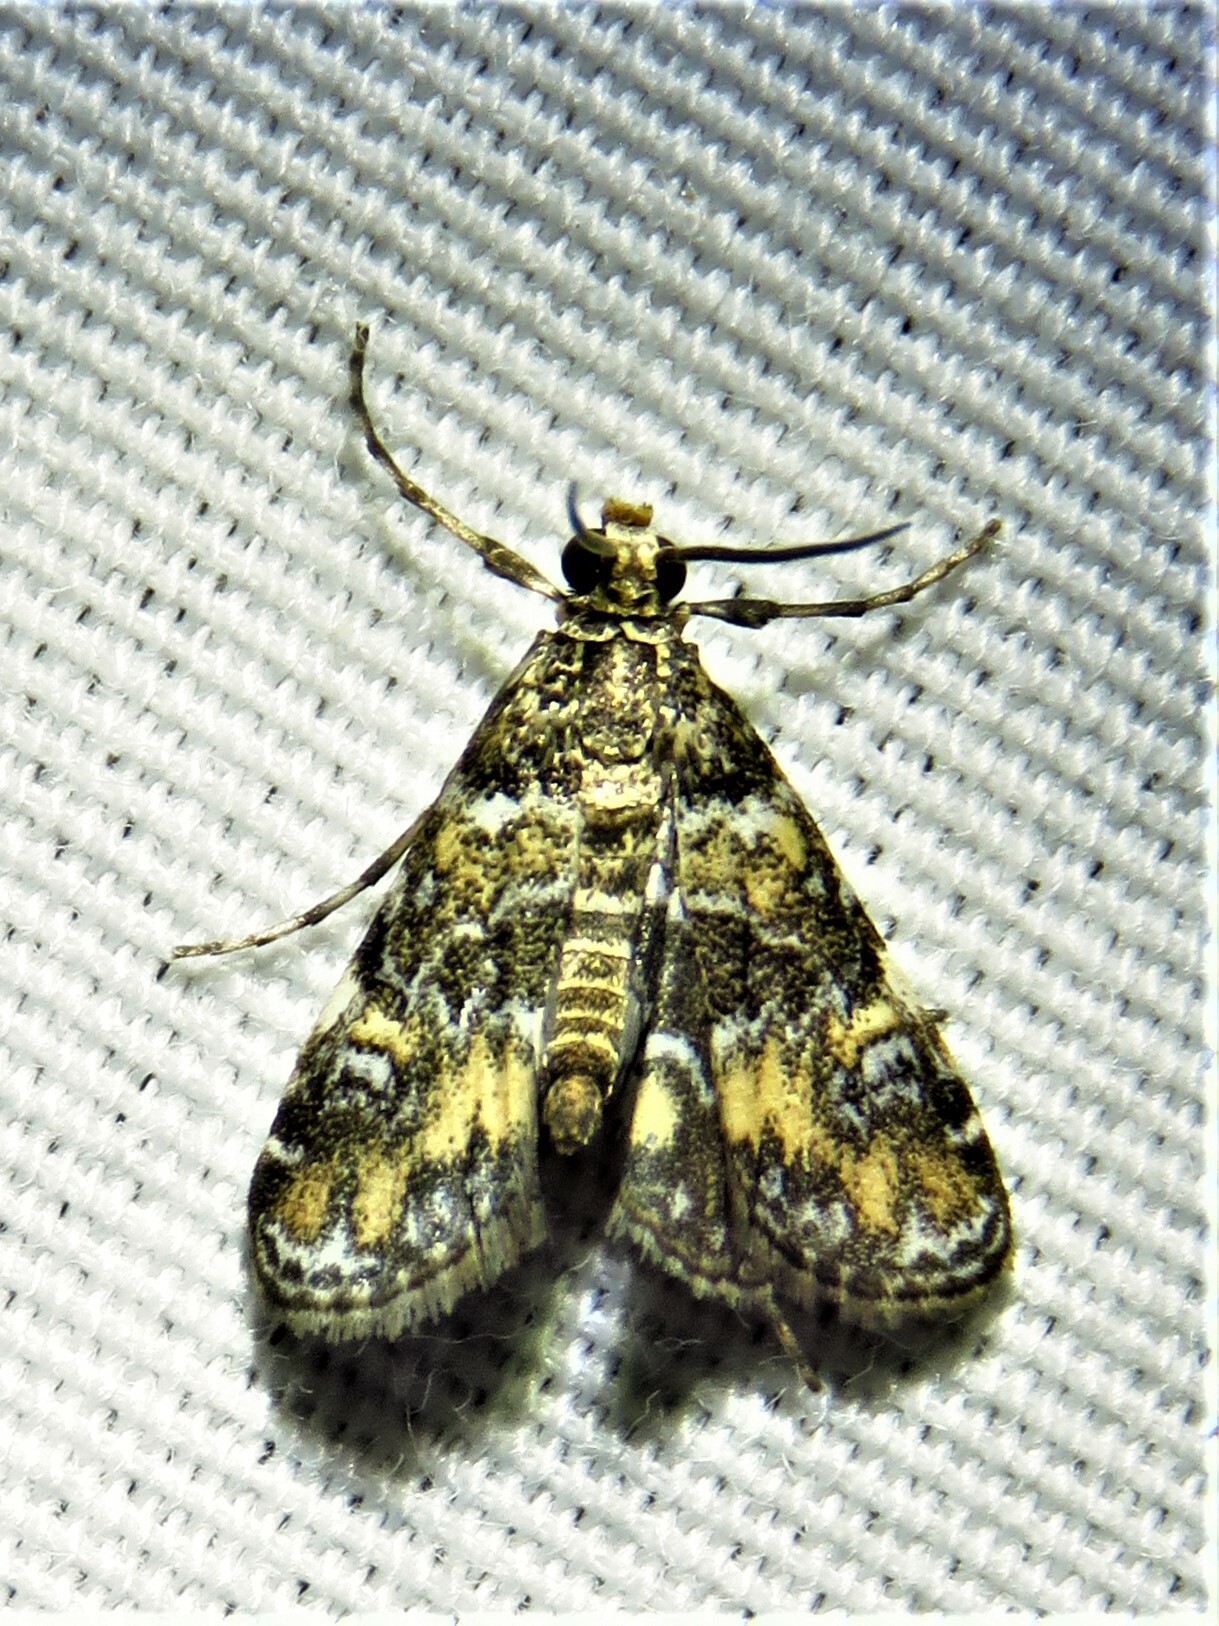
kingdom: Animalia
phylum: Arthropoda
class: Insecta
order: Lepidoptera
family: Crambidae
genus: Elophila
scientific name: Elophila obliteralis
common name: Waterlily leafcutter moth
